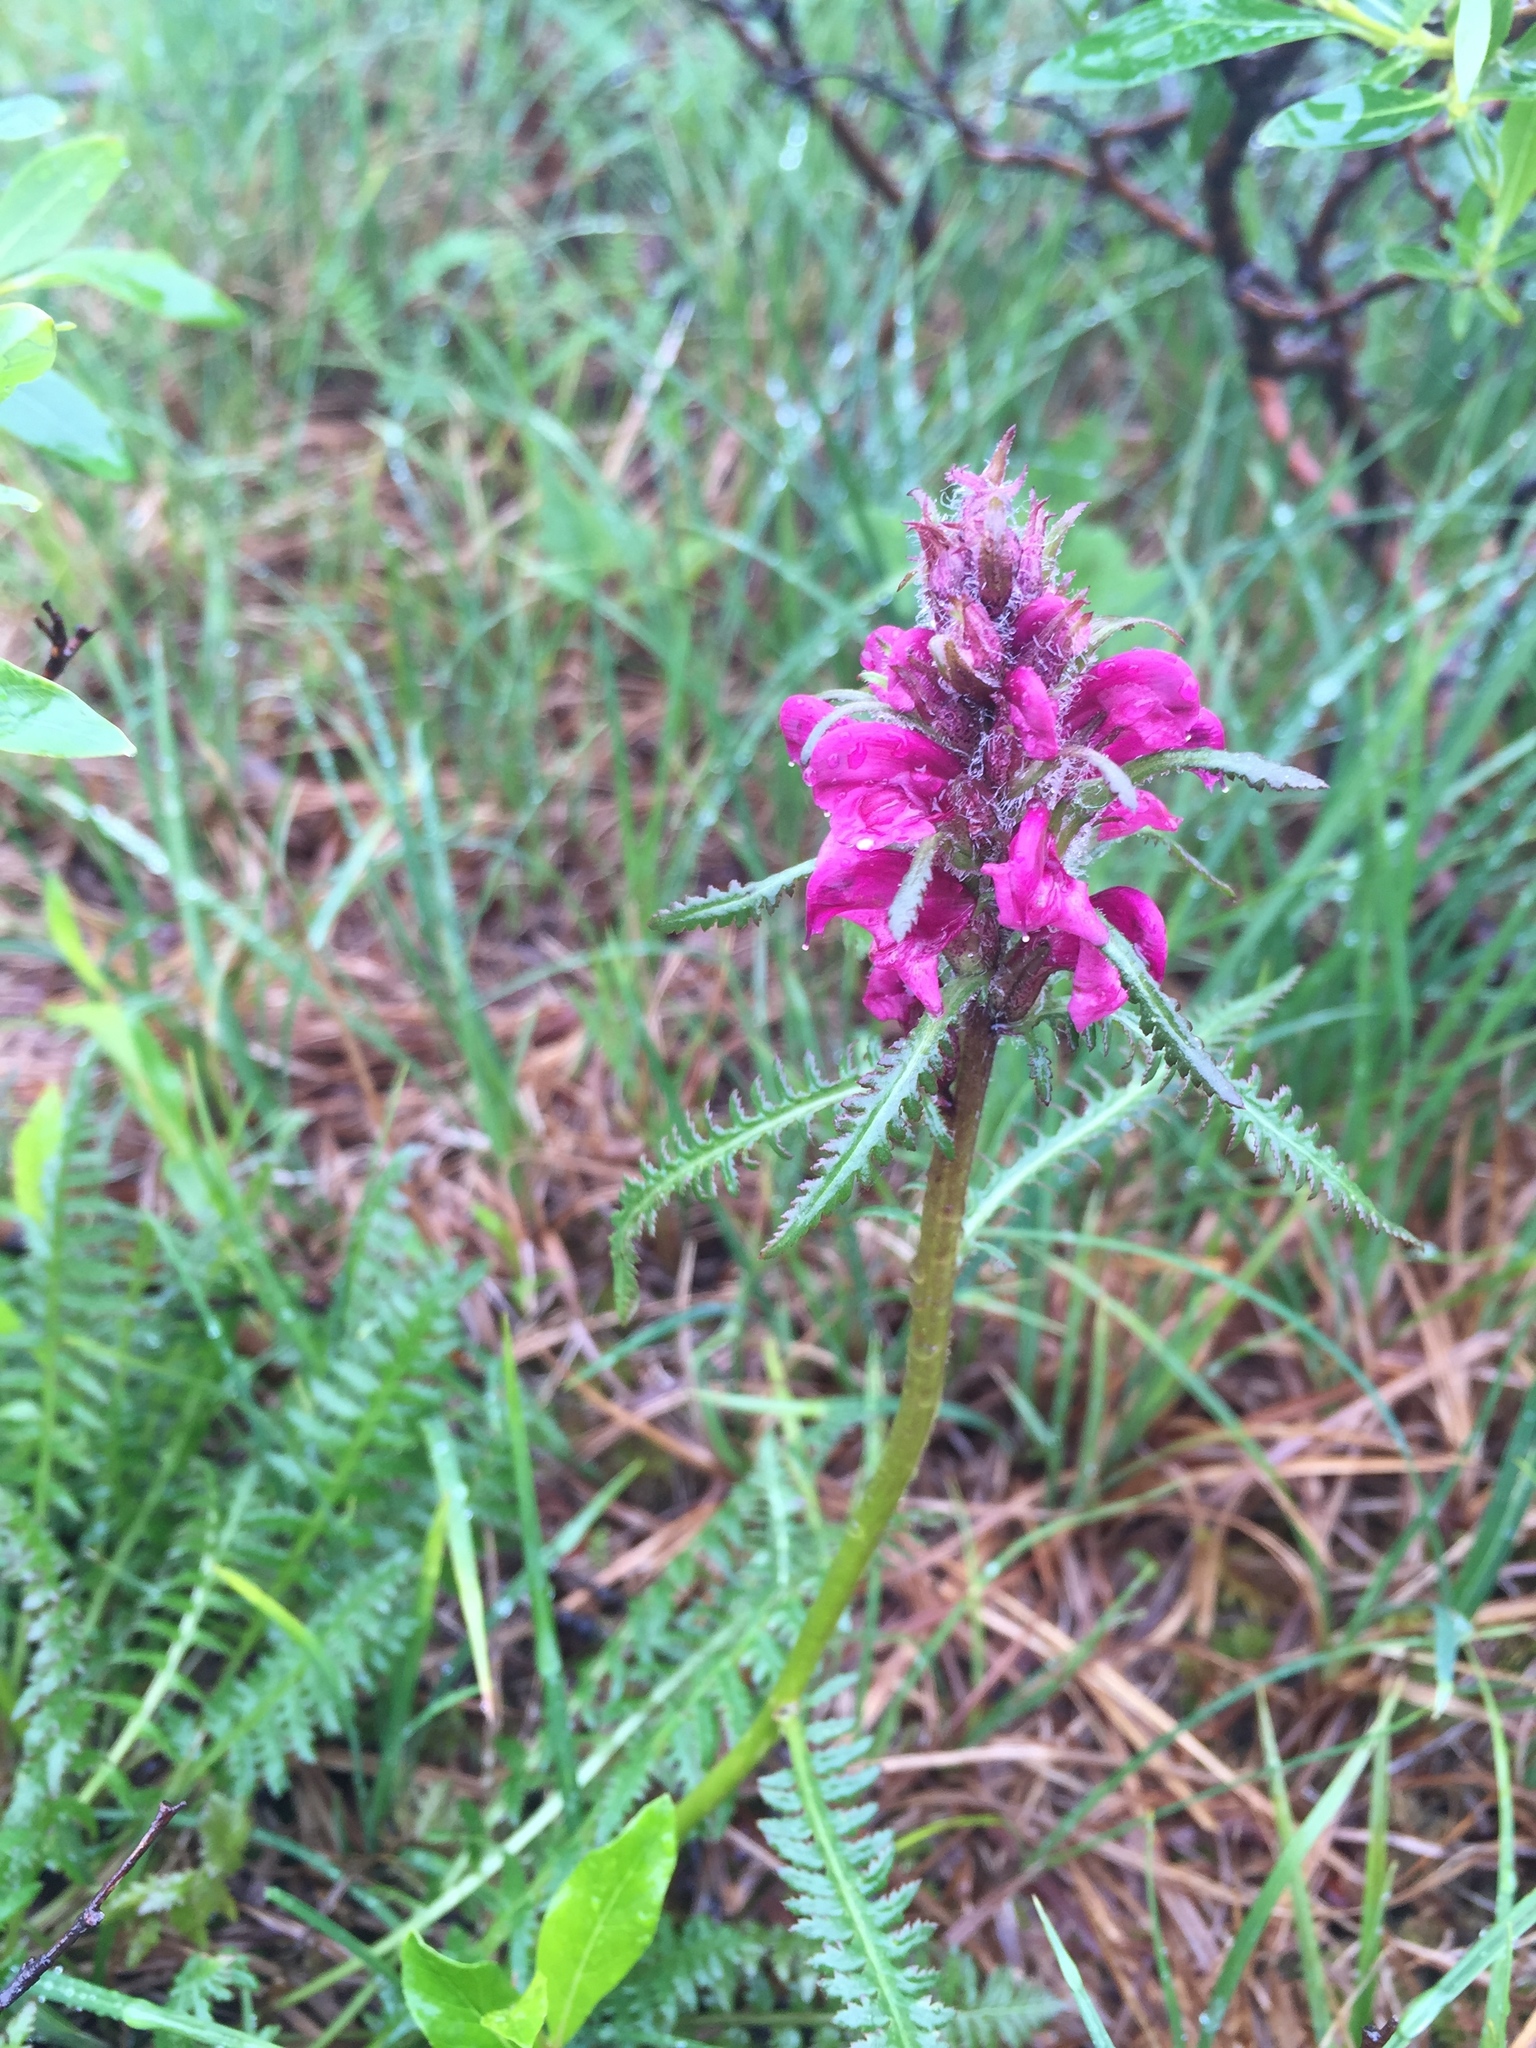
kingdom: Plantae
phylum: Tracheophyta
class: Magnoliopsida
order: Lamiales
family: Orobanchaceae
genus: Pedicularis
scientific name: Pedicularis sudetica
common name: Sudeten lousewort
